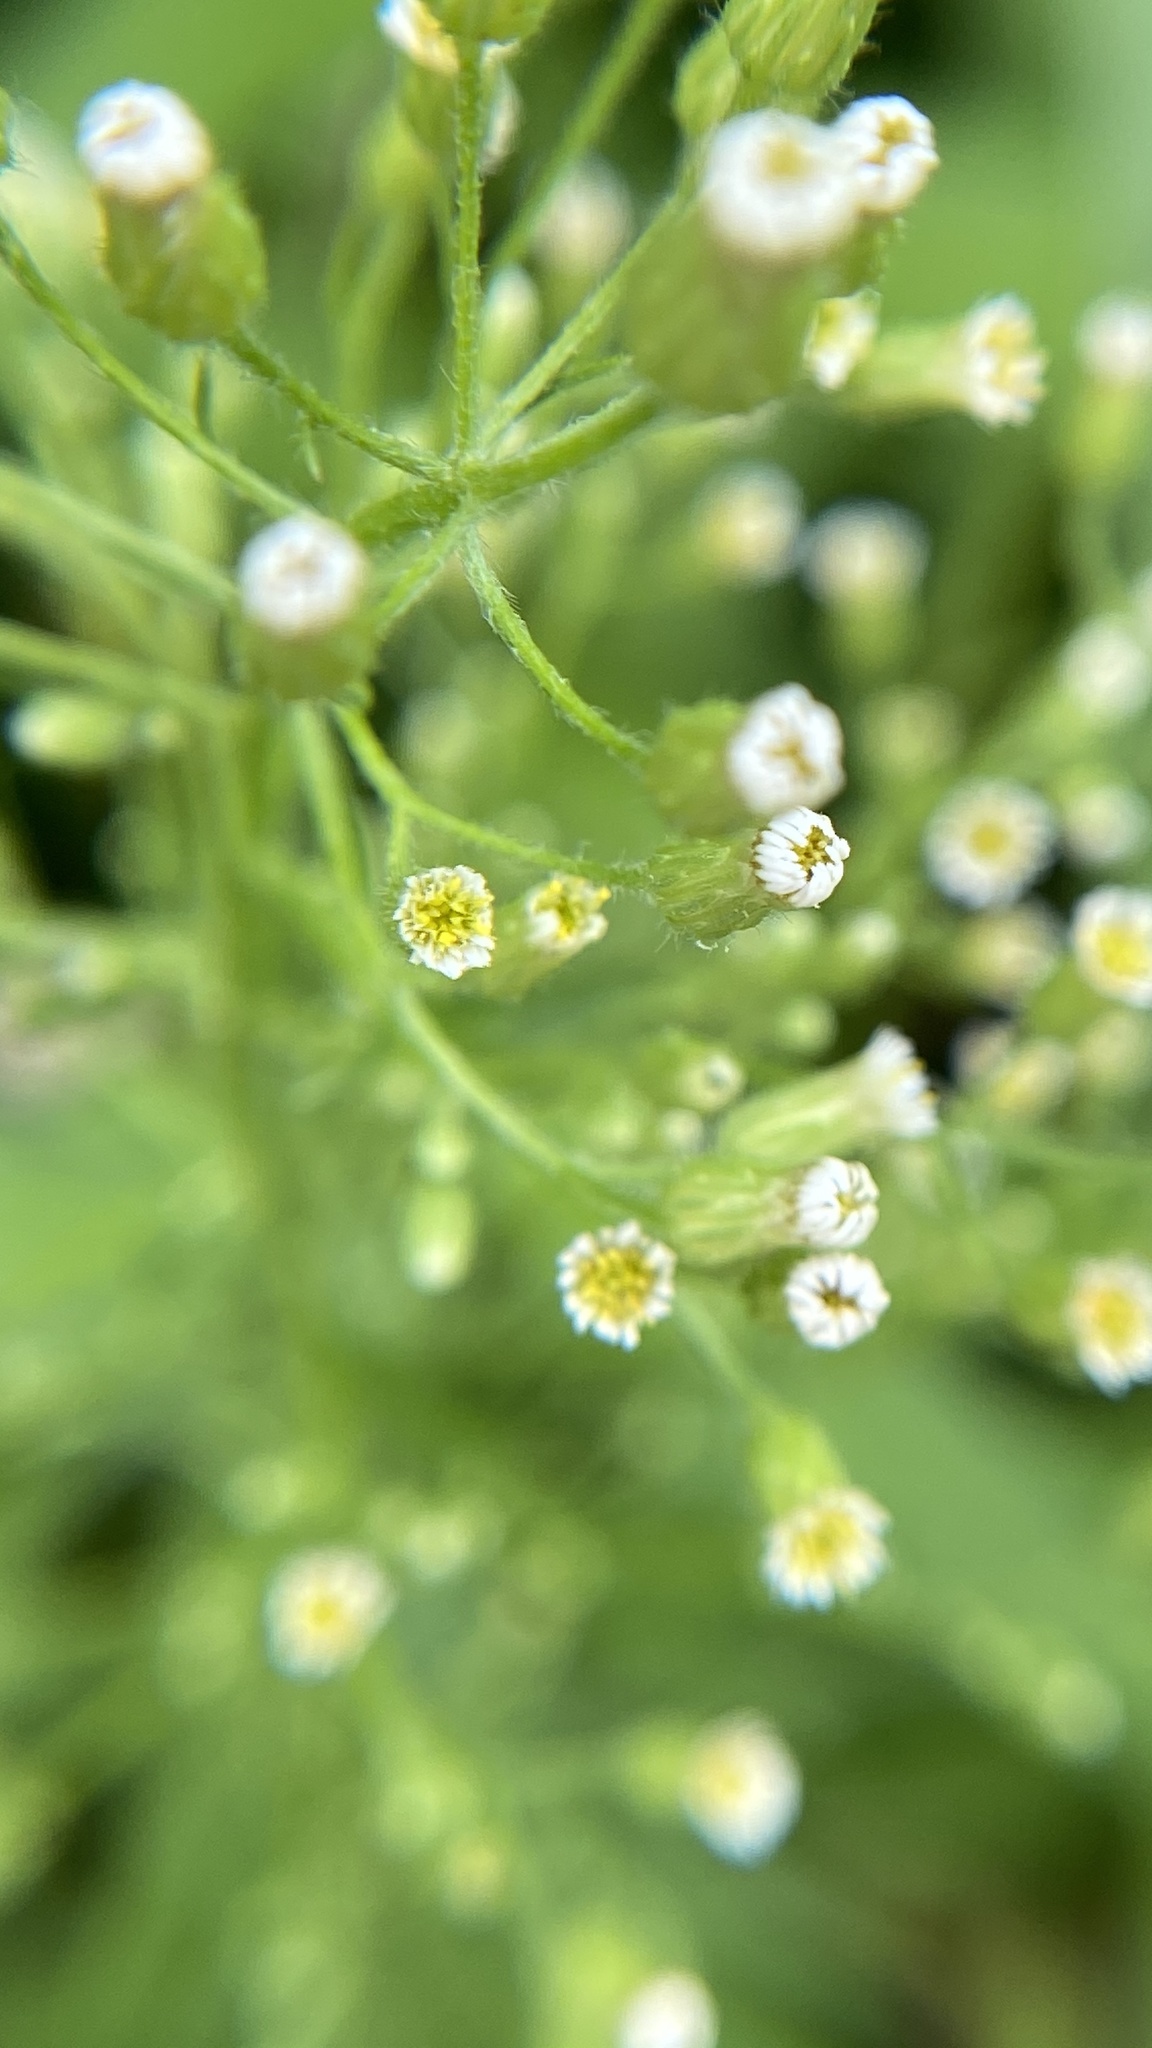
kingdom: Plantae
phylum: Tracheophyta
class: Magnoliopsida
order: Asterales
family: Asteraceae
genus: Erigeron
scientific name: Erigeron canadensis
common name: Canadian fleabane
